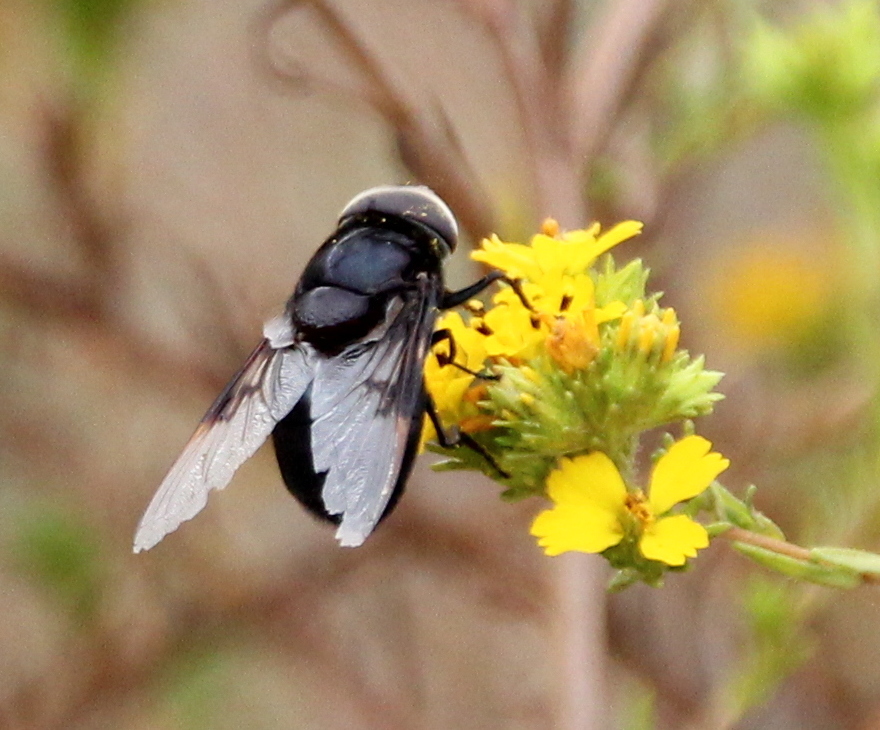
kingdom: Animalia
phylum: Arthropoda
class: Insecta
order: Diptera
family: Syrphidae
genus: Copestylum
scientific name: Copestylum mexicanum
